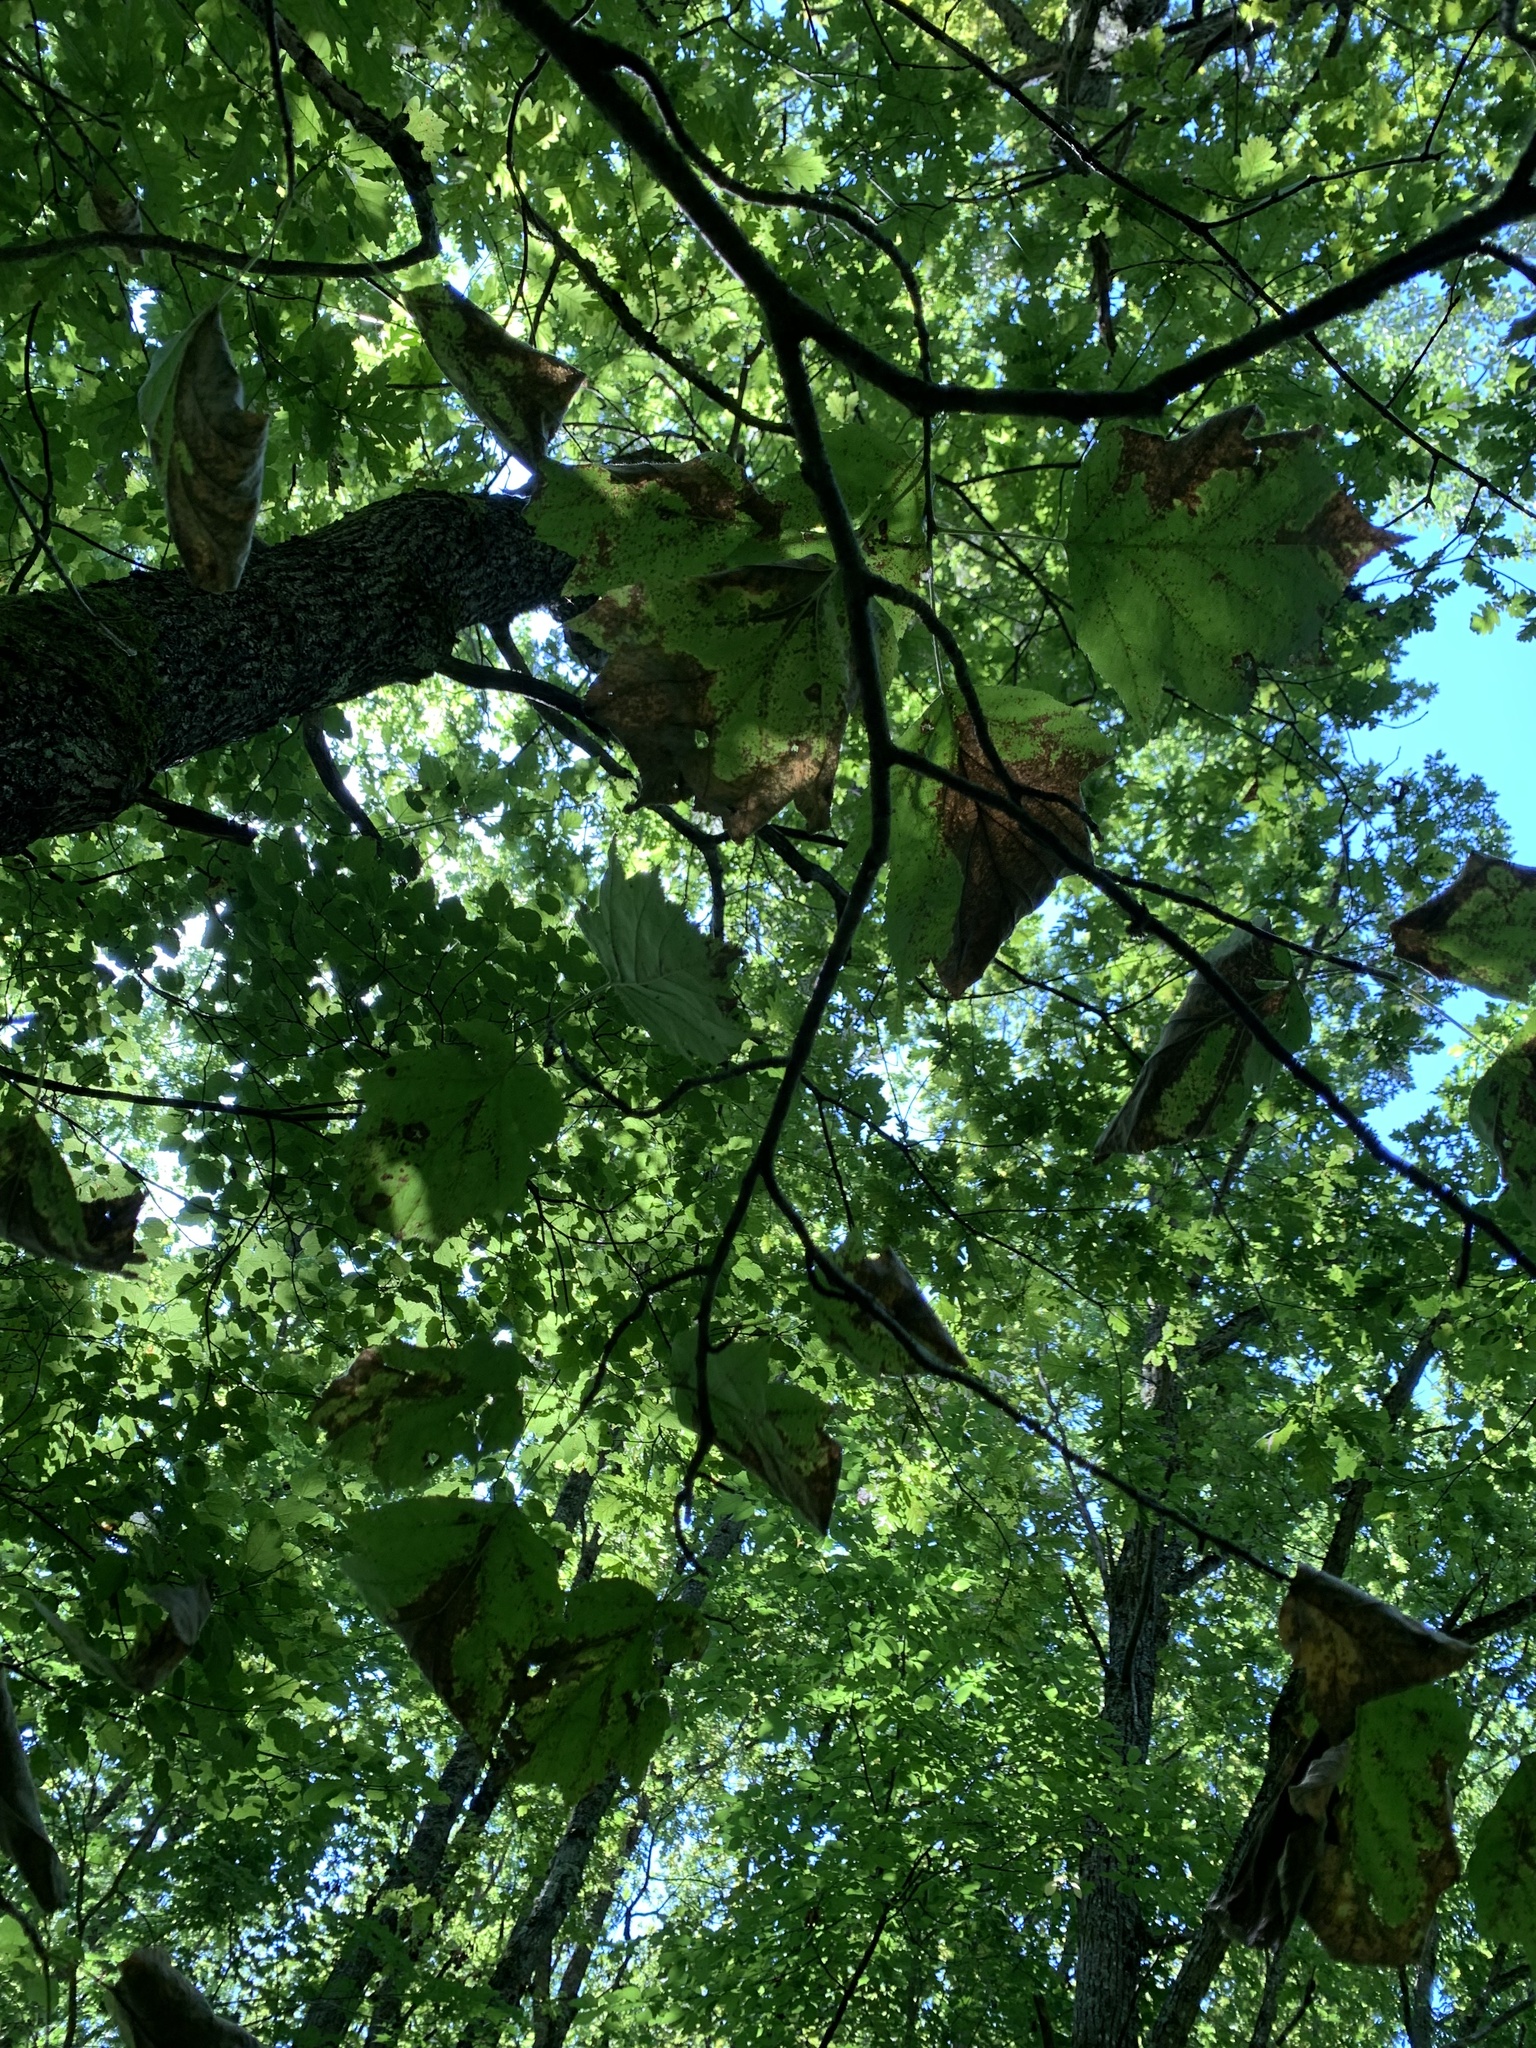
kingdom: Plantae
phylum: Tracheophyta
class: Magnoliopsida
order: Rosales
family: Rosaceae
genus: Torminalis
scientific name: Torminalis glaberrima
